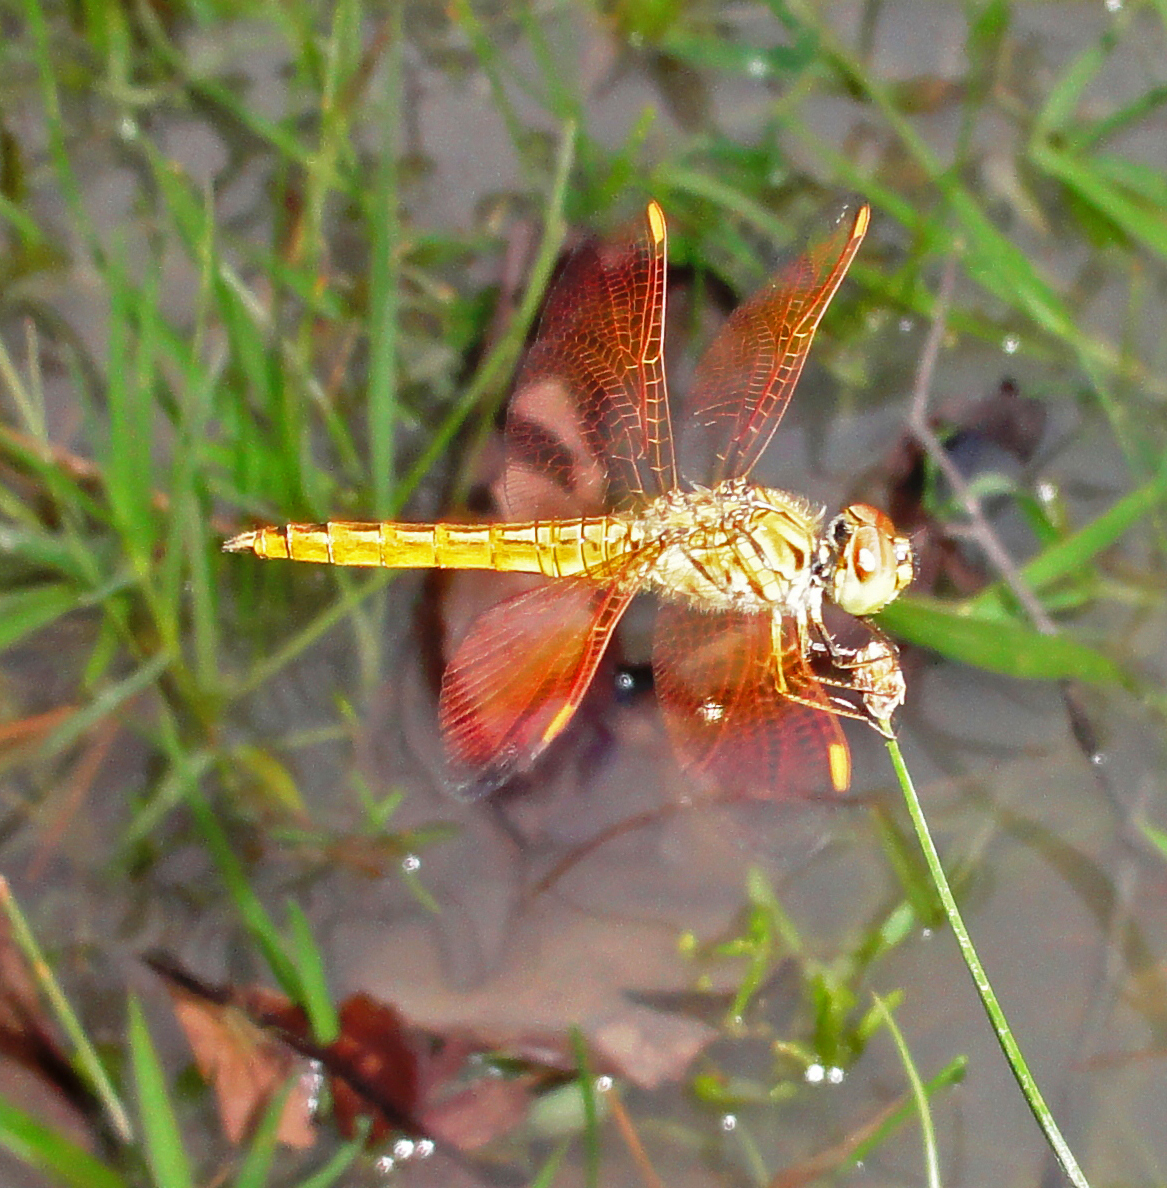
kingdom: Animalia
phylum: Arthropoda
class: Insecta
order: Odonata
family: Libellulidae
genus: Brachythemis
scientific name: Brachythemis contaminata
